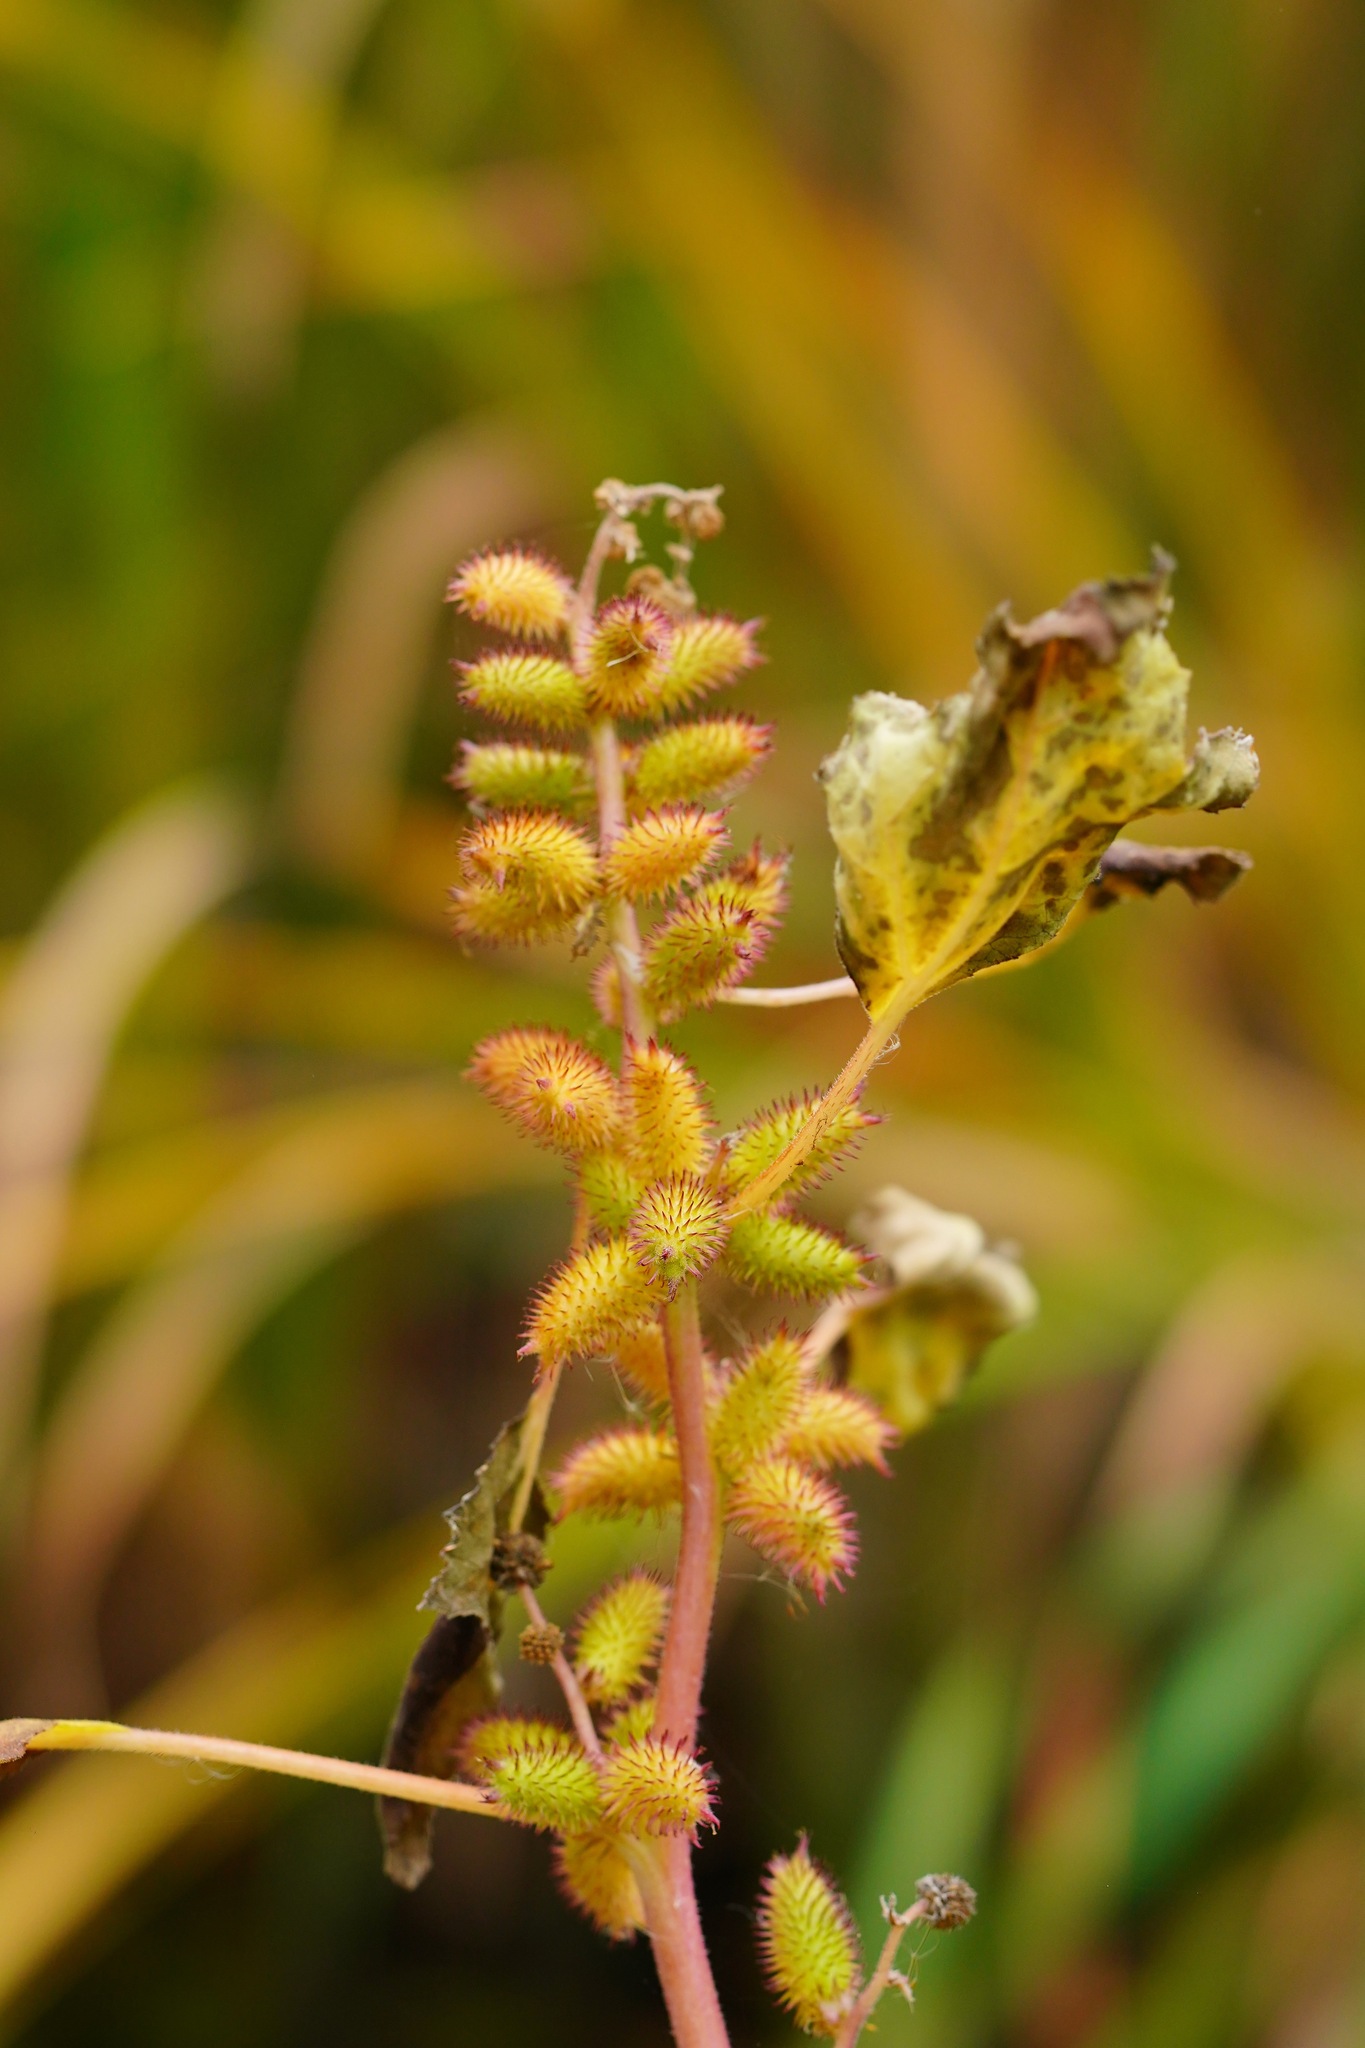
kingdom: Plantae
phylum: Tracheophyta
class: Magnoliopsida
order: Asterales
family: Asteraceae
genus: Xanthium
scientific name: Xanthium strumarium
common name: Rough cocklebur
